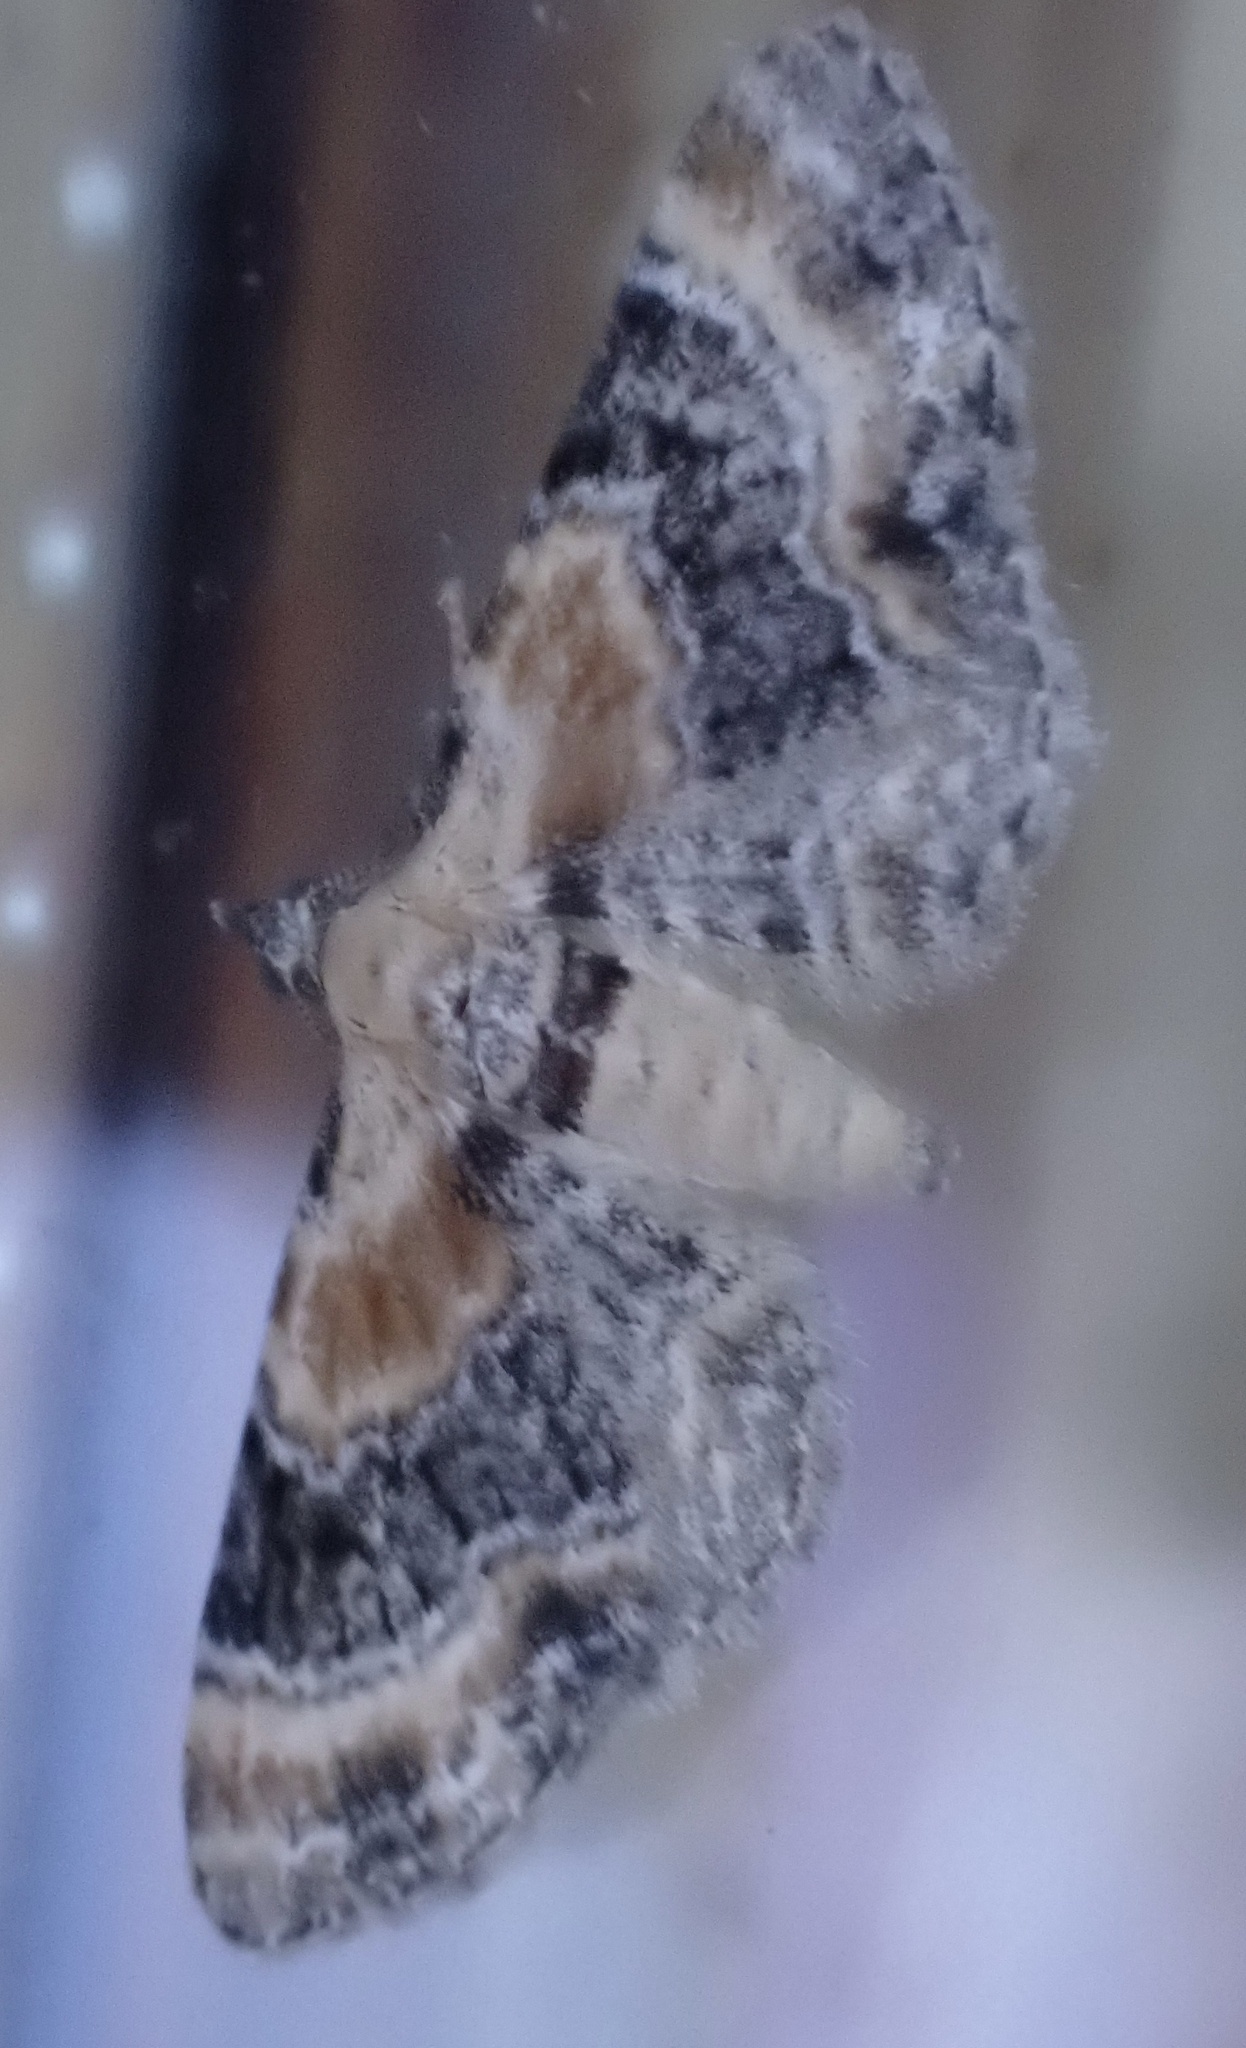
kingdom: Animalia
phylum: Arthropoda
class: Insecta
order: Lepidoptera
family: Geometridae
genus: Eupithecia
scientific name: Eupithecia linariata
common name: Toadflax pug
